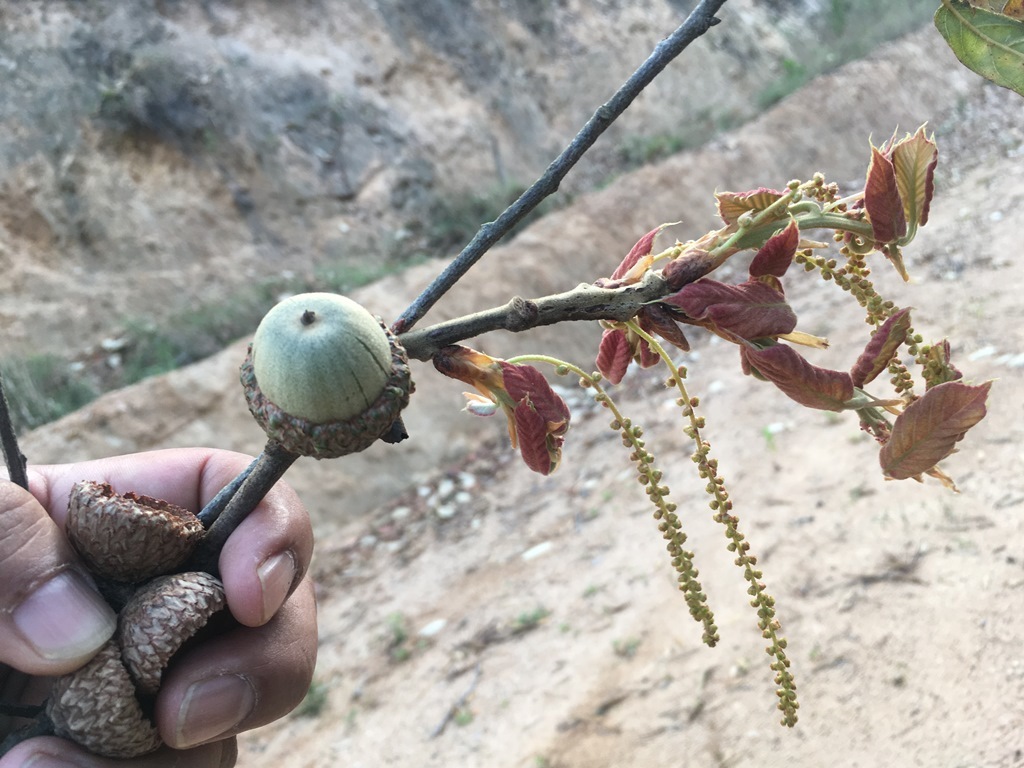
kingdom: Plantae
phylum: Tracheophyta
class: Magnoliopsida
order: Fagales
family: Fagaceae
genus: Quercus
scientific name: Quercus calophylla
